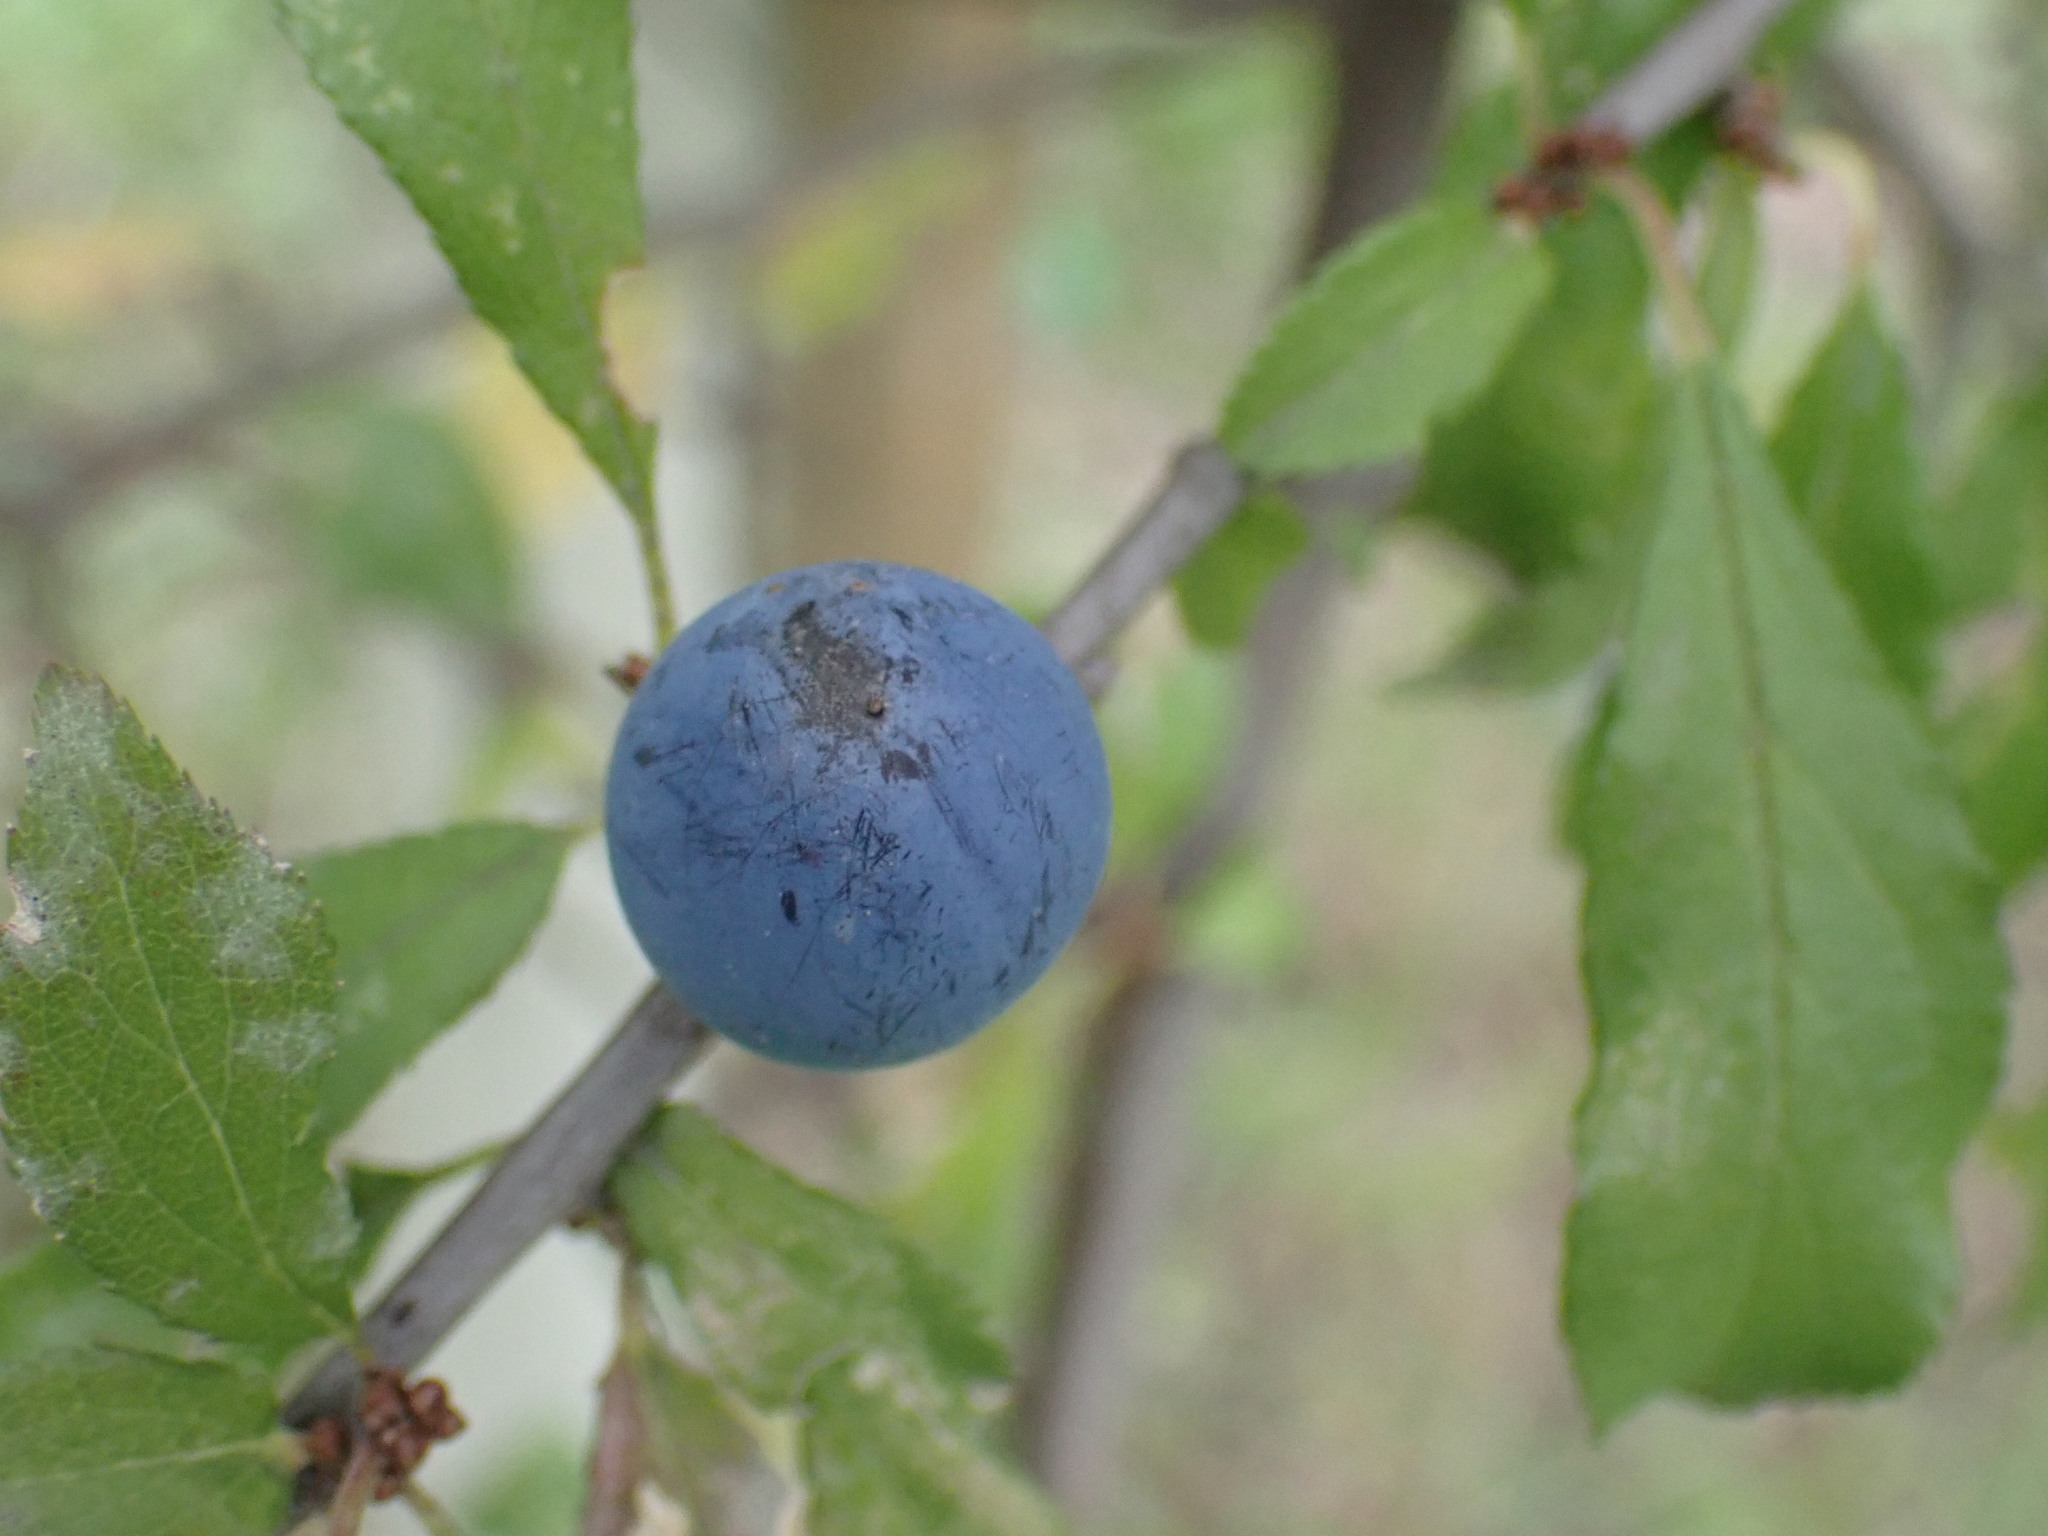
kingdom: Plantae
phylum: Tracheophyta
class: Magnoliopsida
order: Rosales
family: Rosaceae
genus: Prunus
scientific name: Prunus spinosa
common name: Blackthorn
